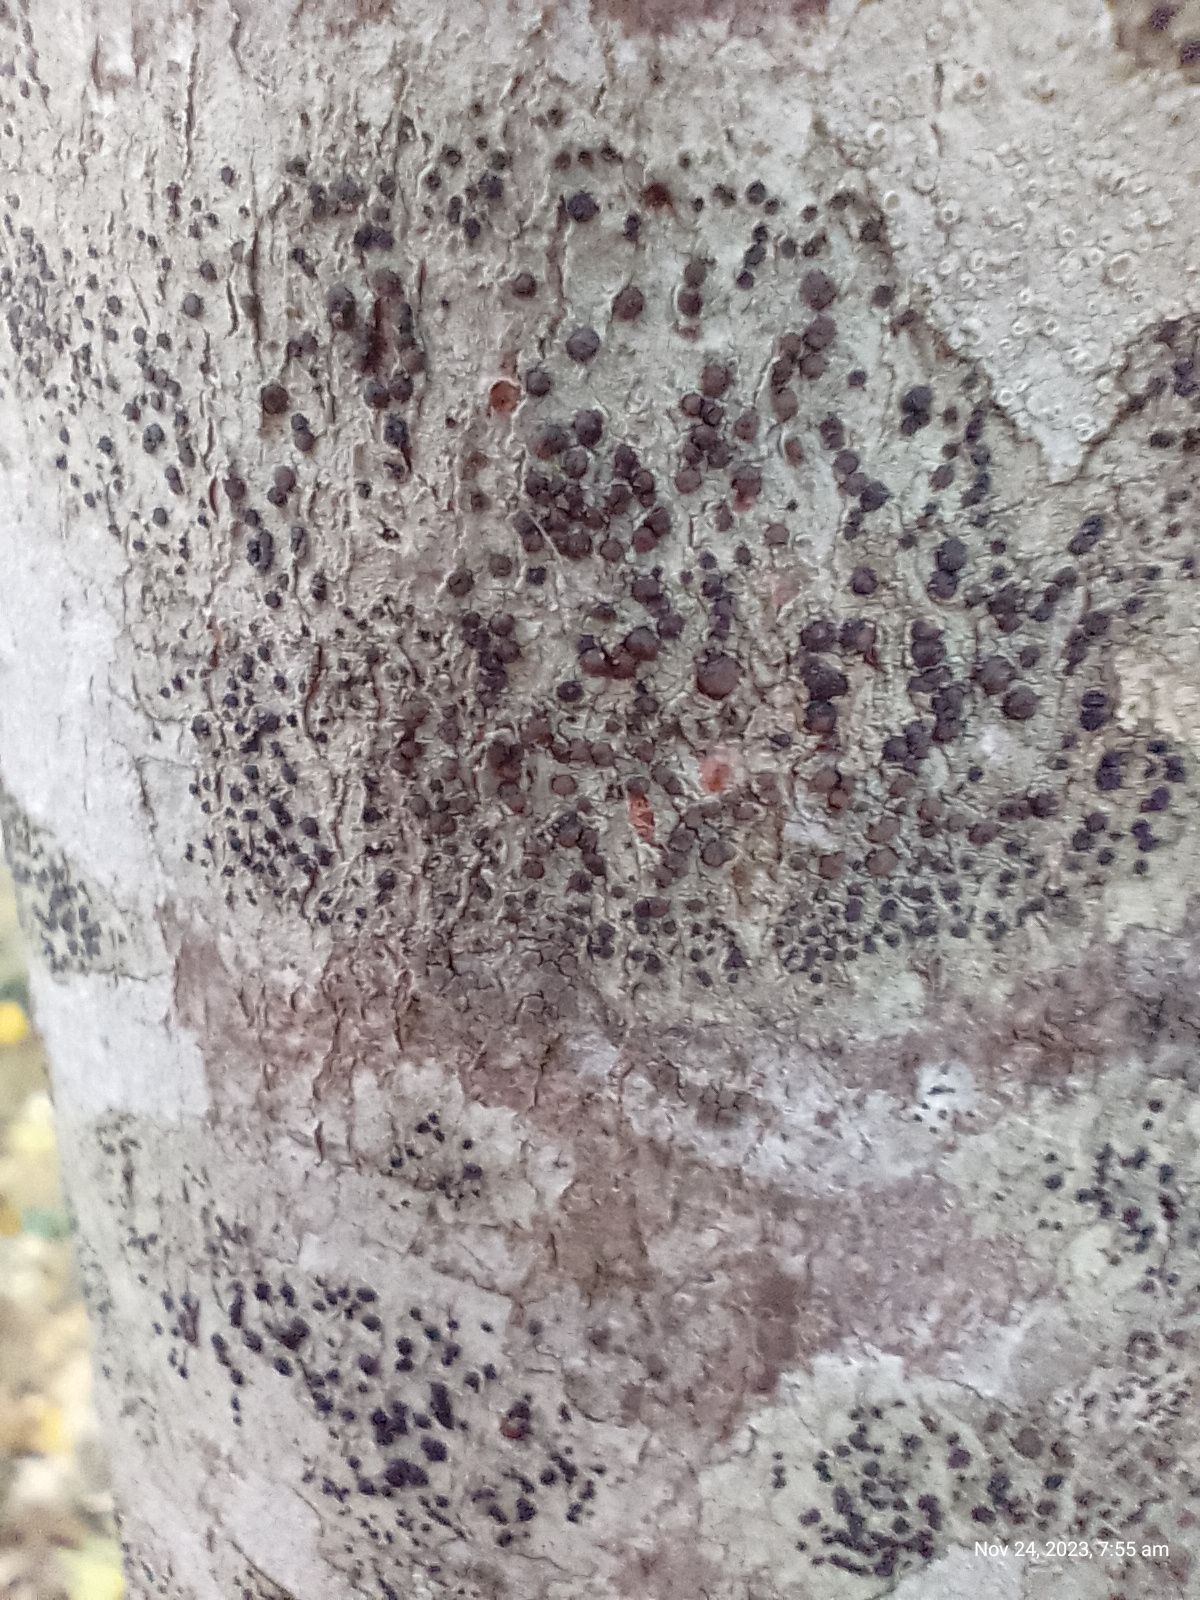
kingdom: Fungi
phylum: Ascomycota
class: Lecanoromycetes
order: Lecanorales
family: Lecanoraceae
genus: Lecidella
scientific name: Lecidella elaeochroma
